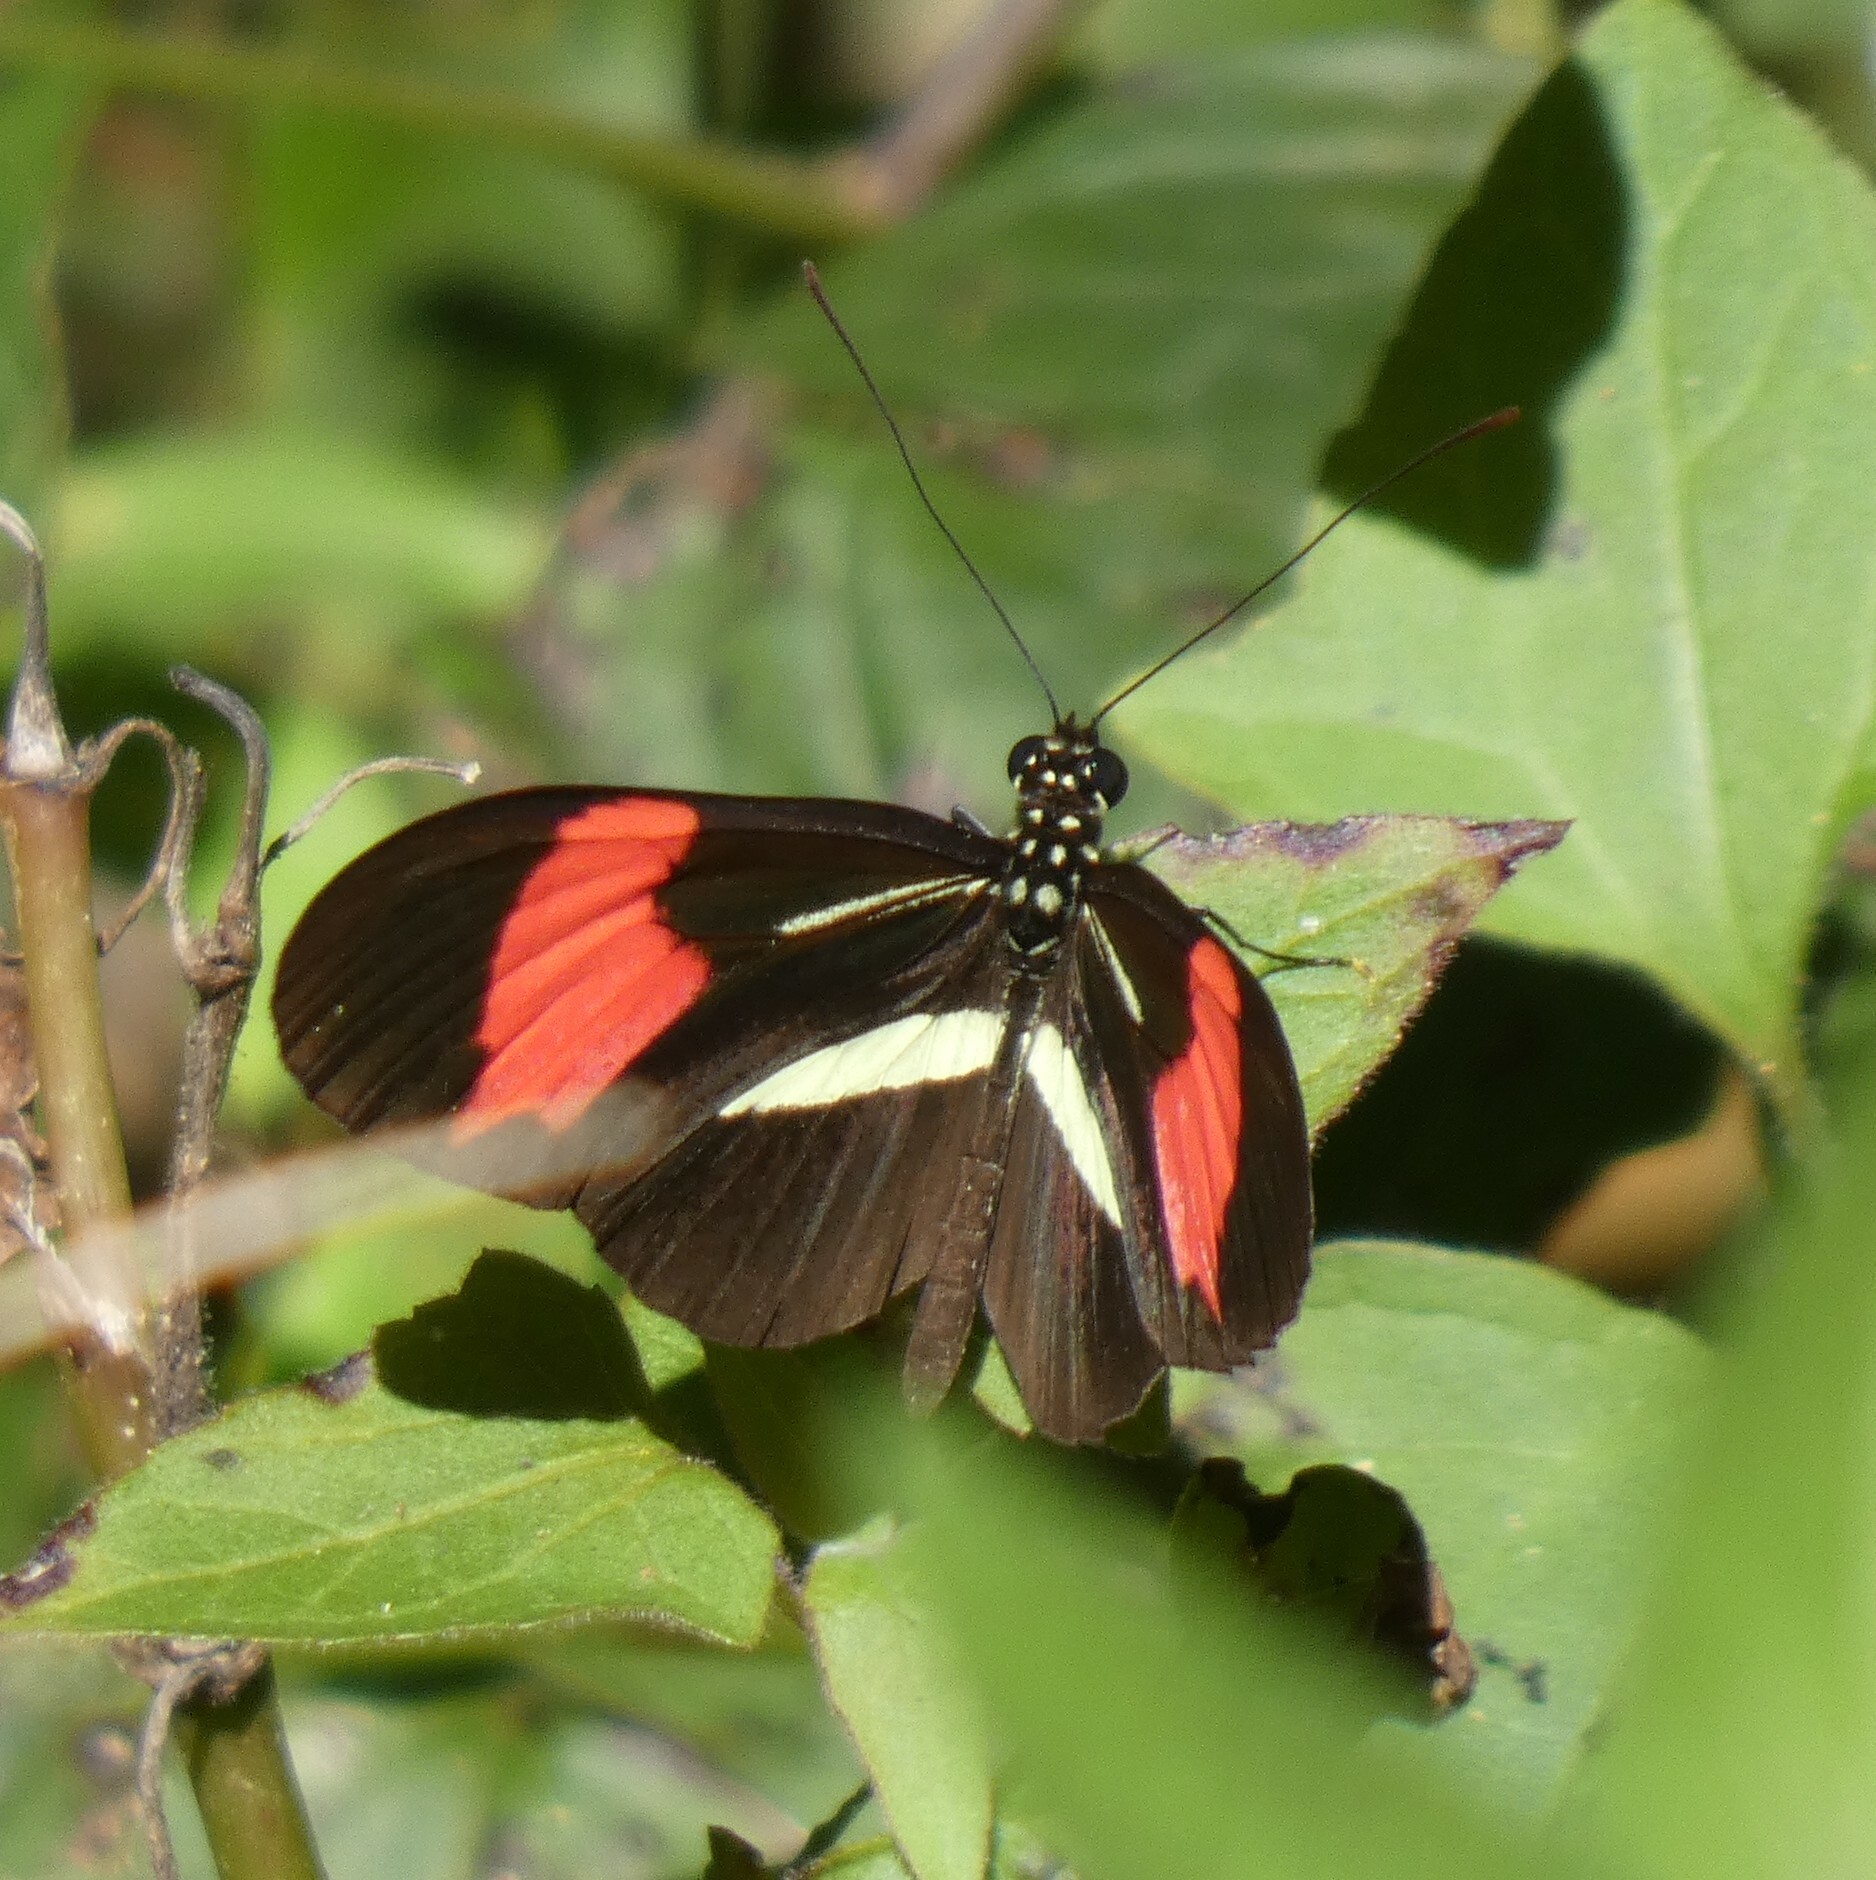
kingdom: Animalia
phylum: Arthropoda
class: Insecta
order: Lepidoptera
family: Nymphalidae
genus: Heliconius
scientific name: Heliconius erato
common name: Common patch longwing
